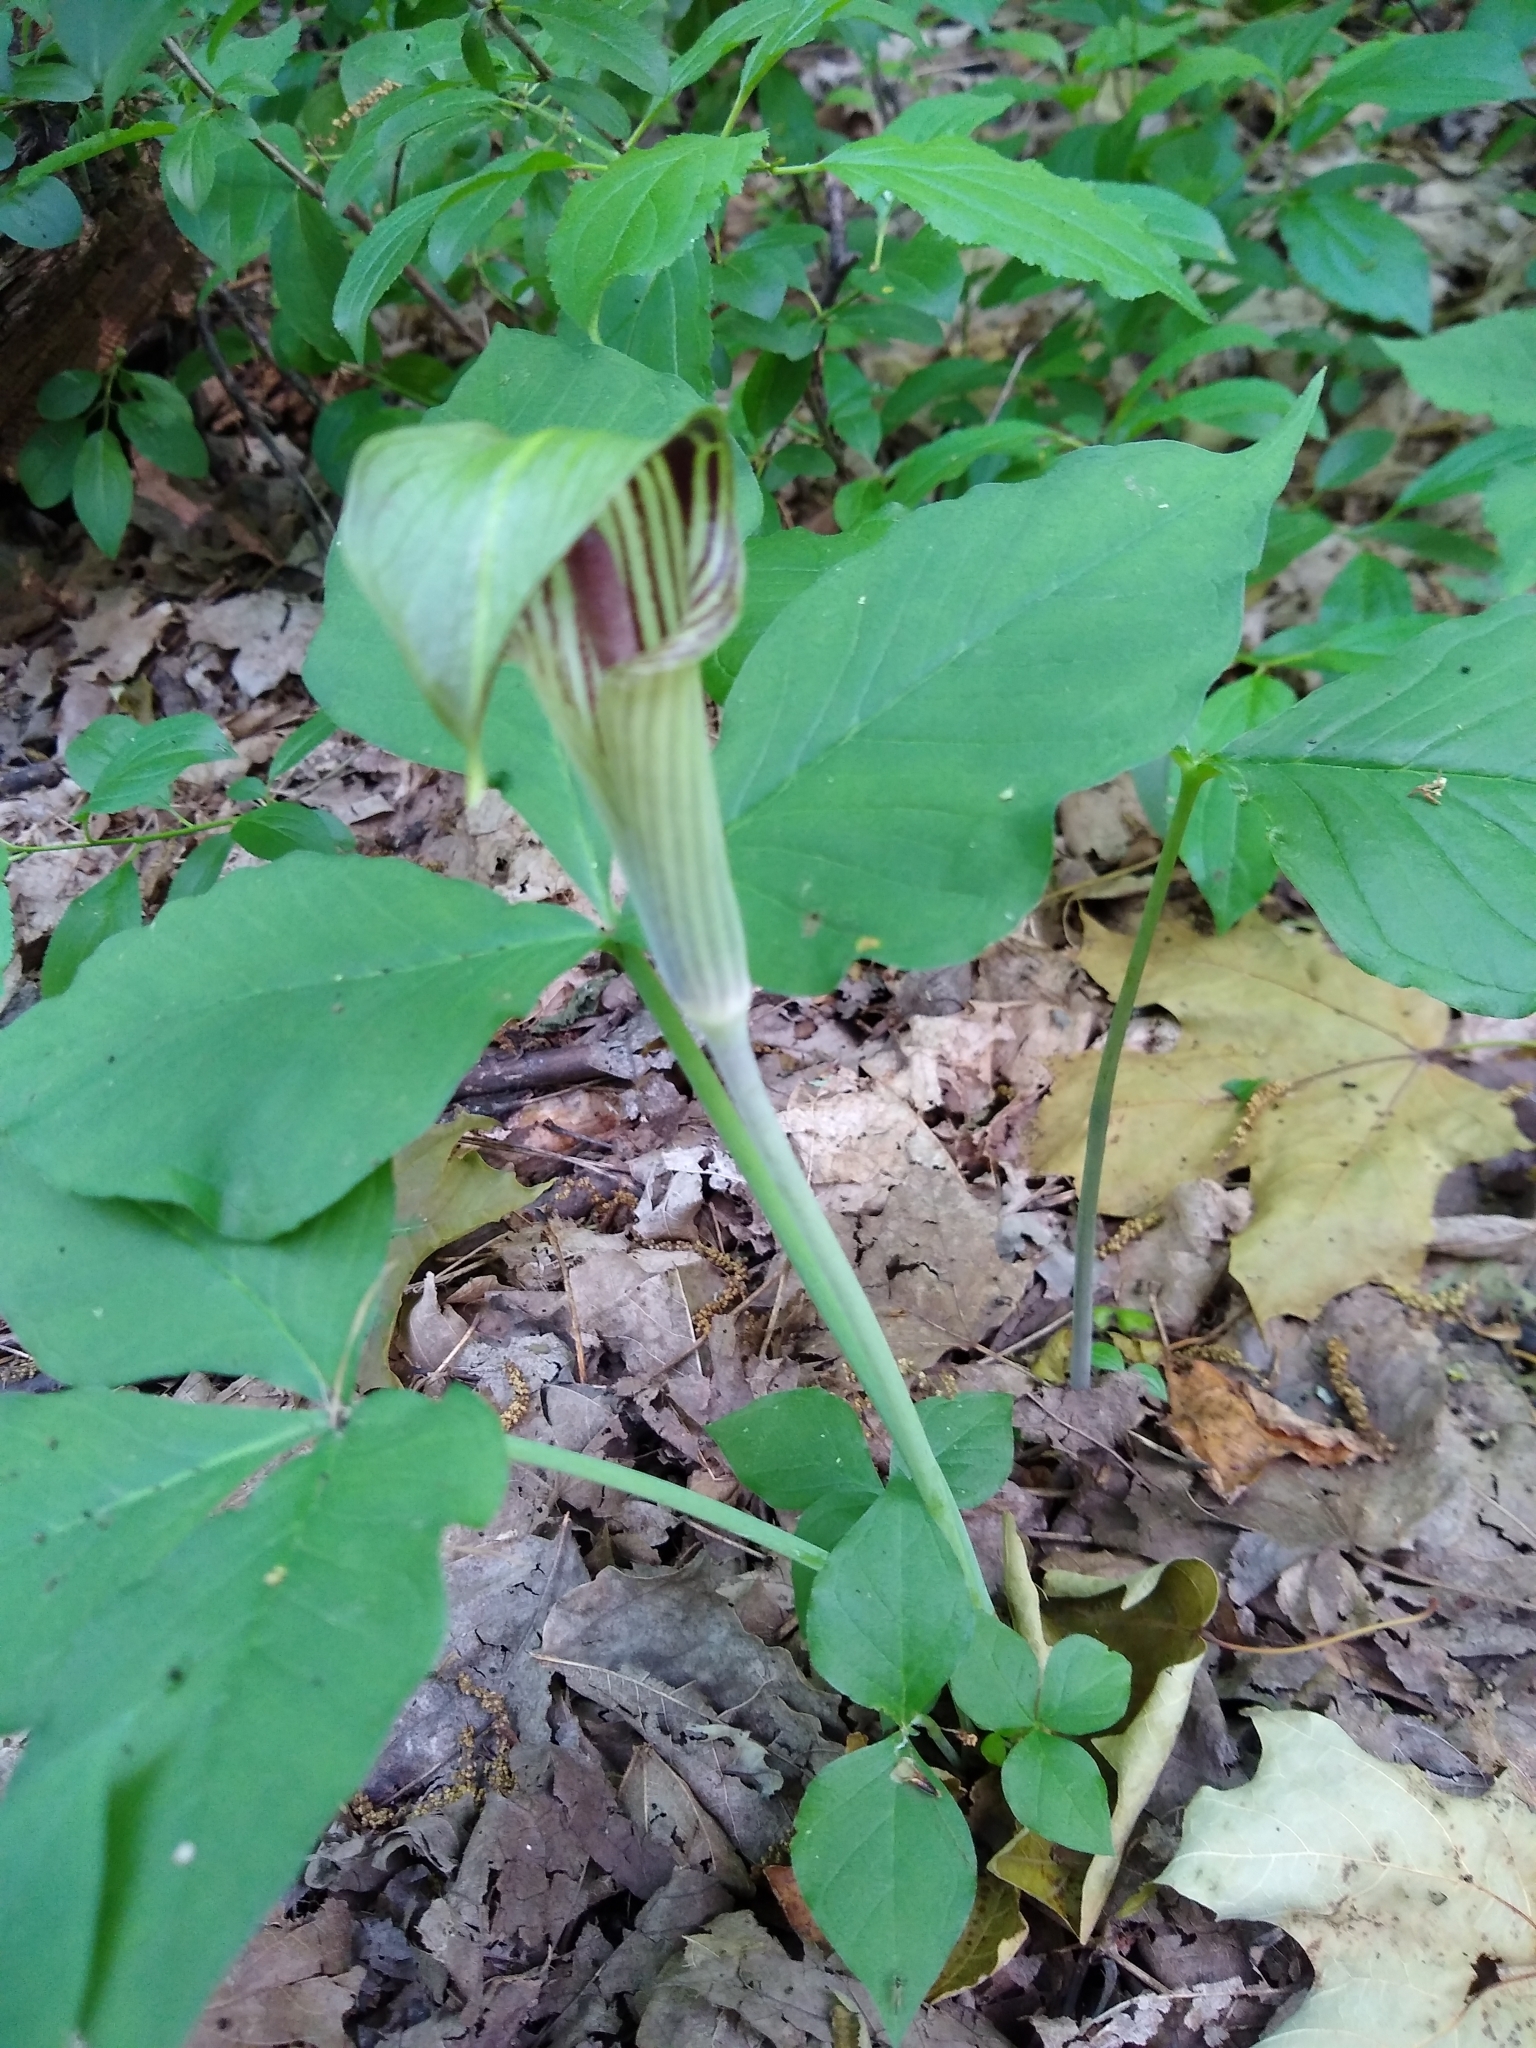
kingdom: Plantae
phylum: Tracheophyta
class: Liliopsida
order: Alismatales
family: Araceae
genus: Arisaema
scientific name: Arisaema triphyllum
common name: Jack-in-the-pulpit
